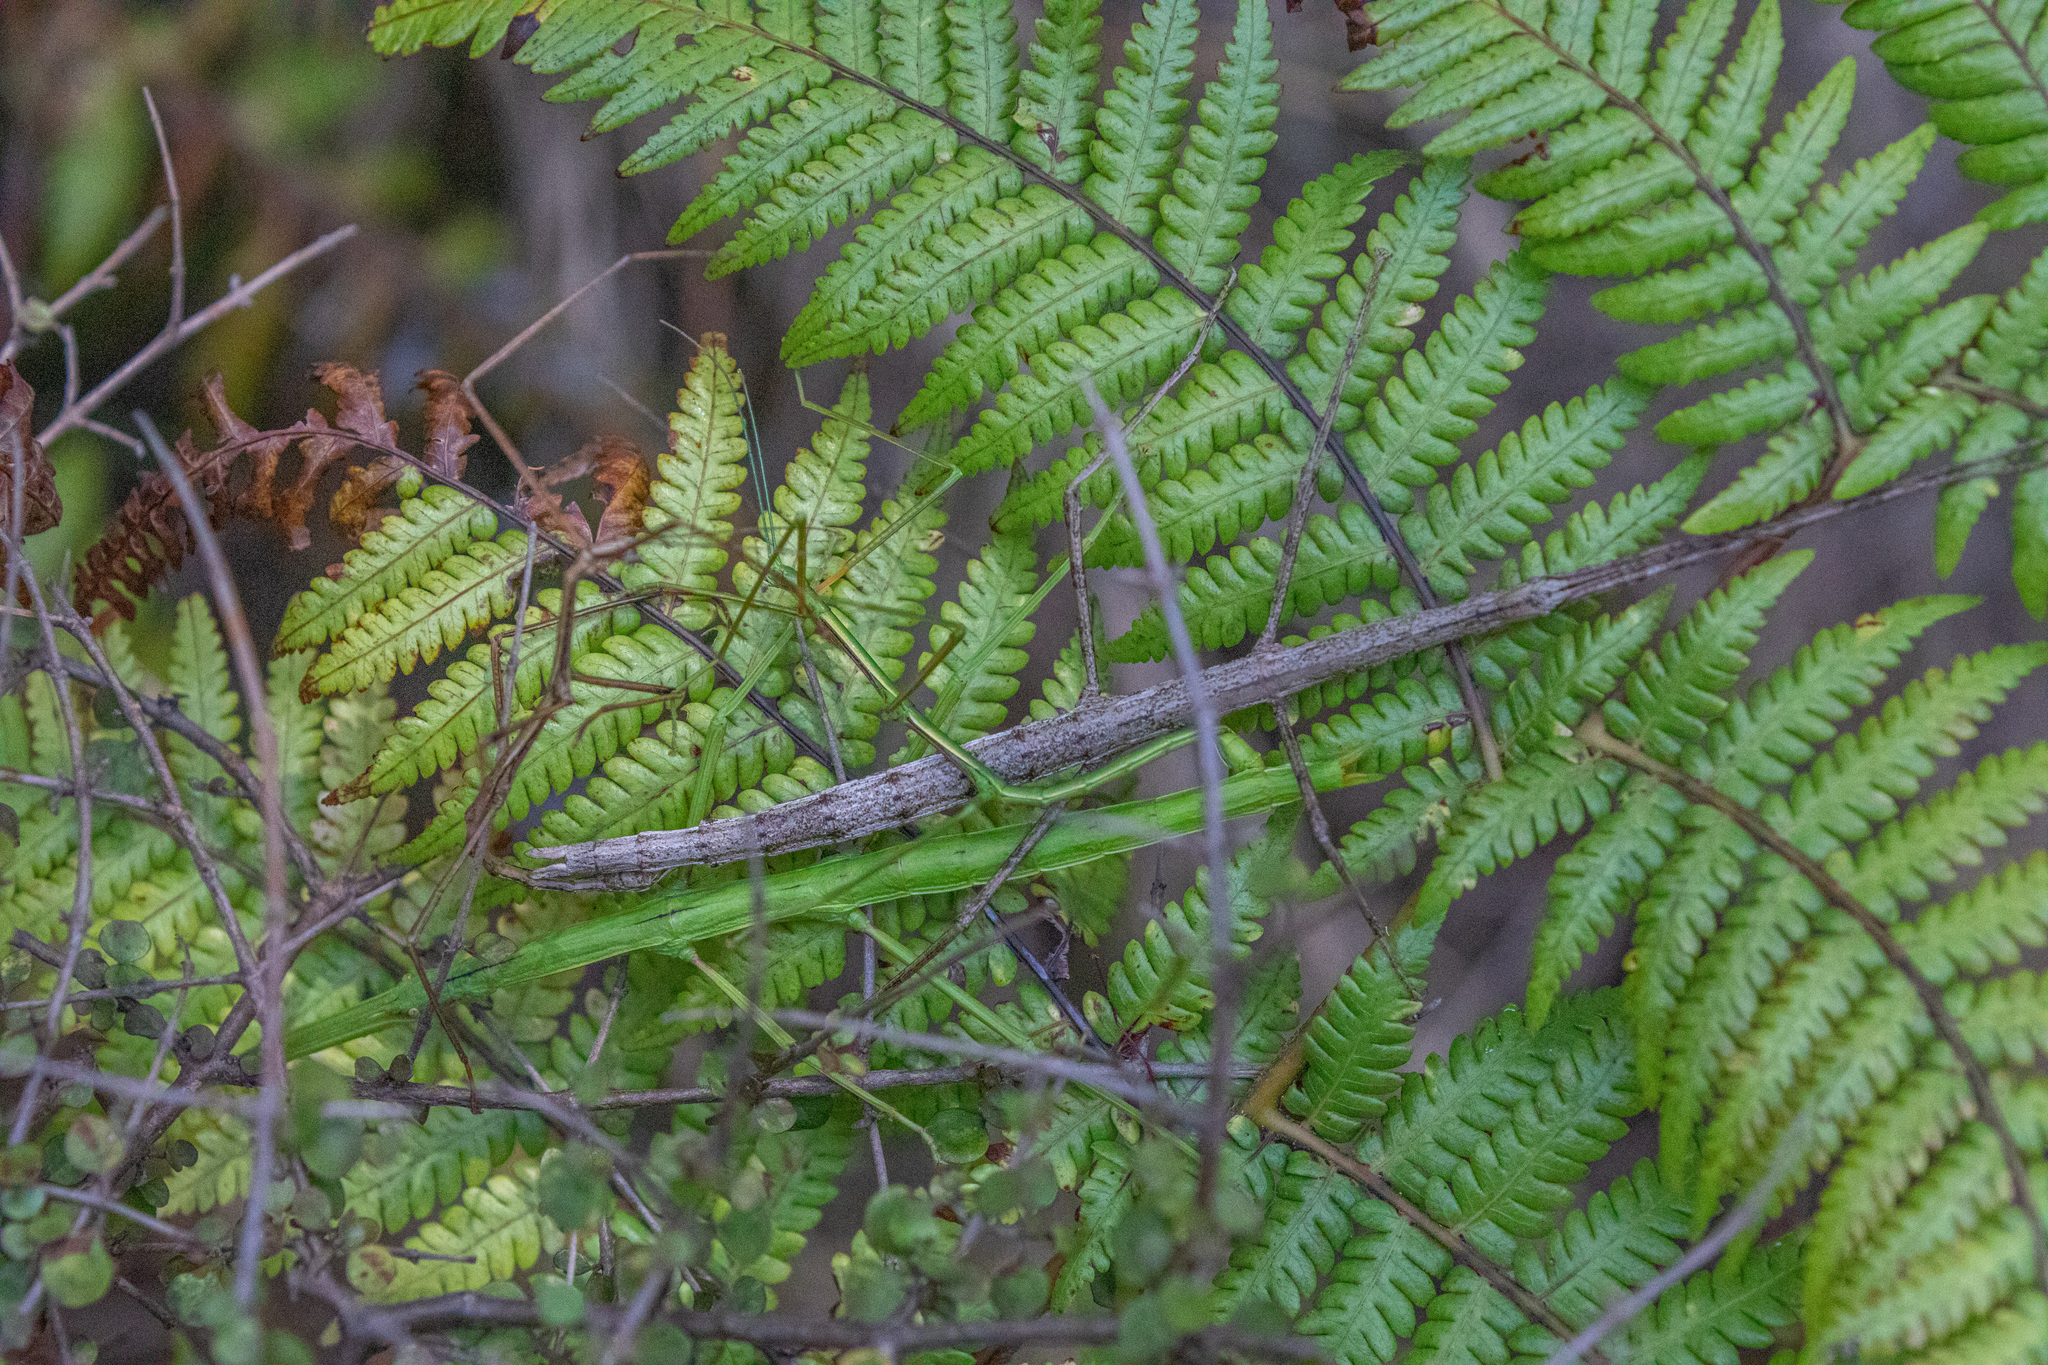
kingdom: Animalia
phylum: Arthropoda
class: Insecta
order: Phasmida
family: Phasmatidae
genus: Clitarchus
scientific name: Clitarchus hookeri
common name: Smooth stick insect
